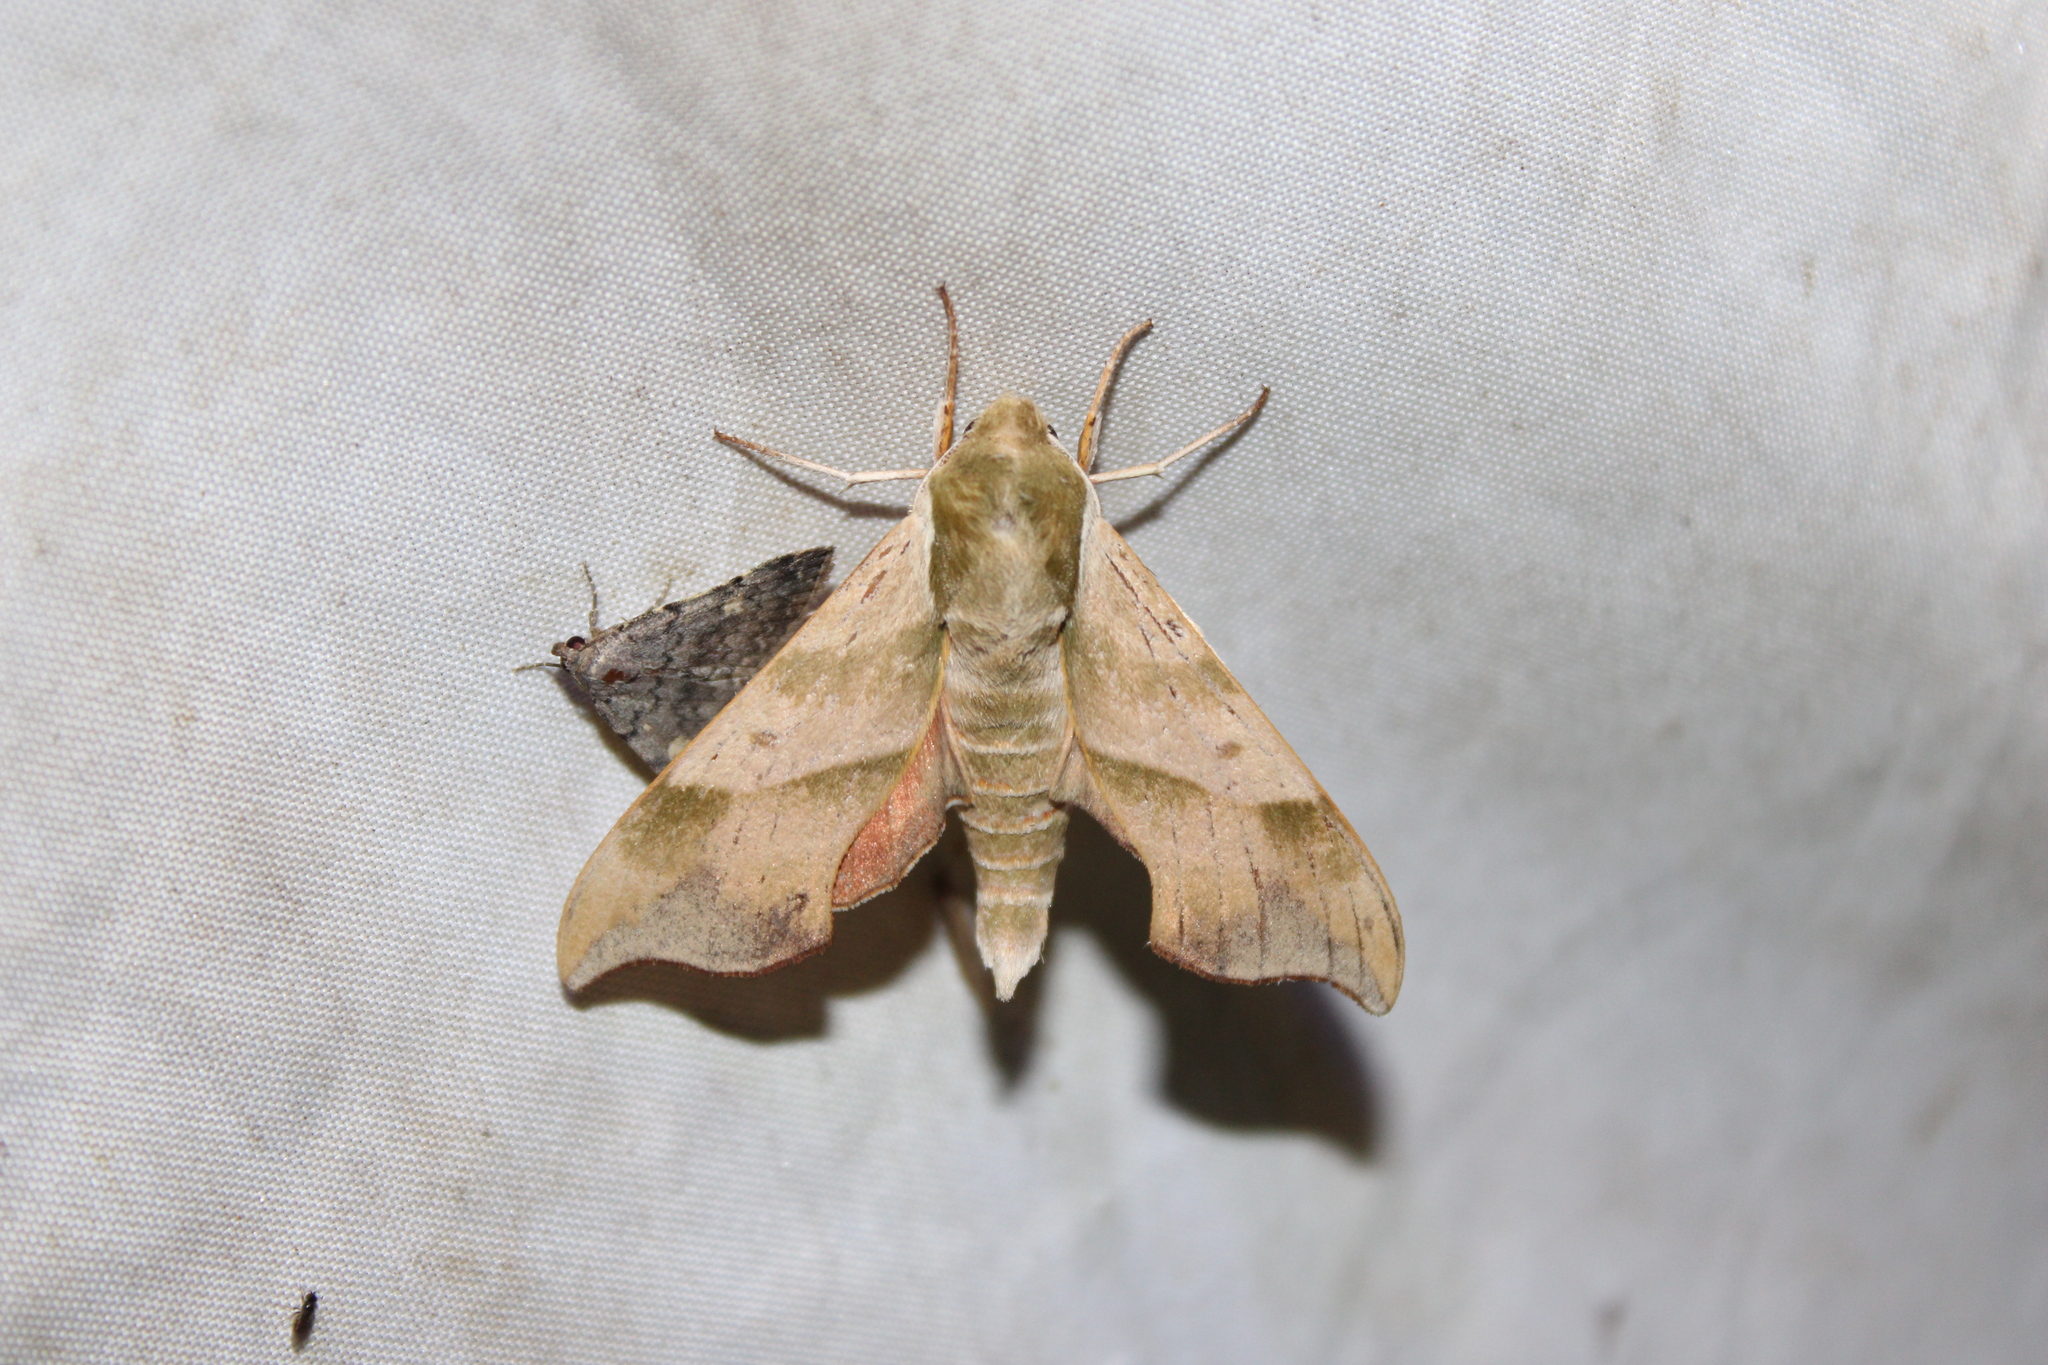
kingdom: Animalia
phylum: Arthropoda
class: Insecta
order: Lepidoptera
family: Sphingidae
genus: Darapsa
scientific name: Darapsa myron
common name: Hog sphinx
